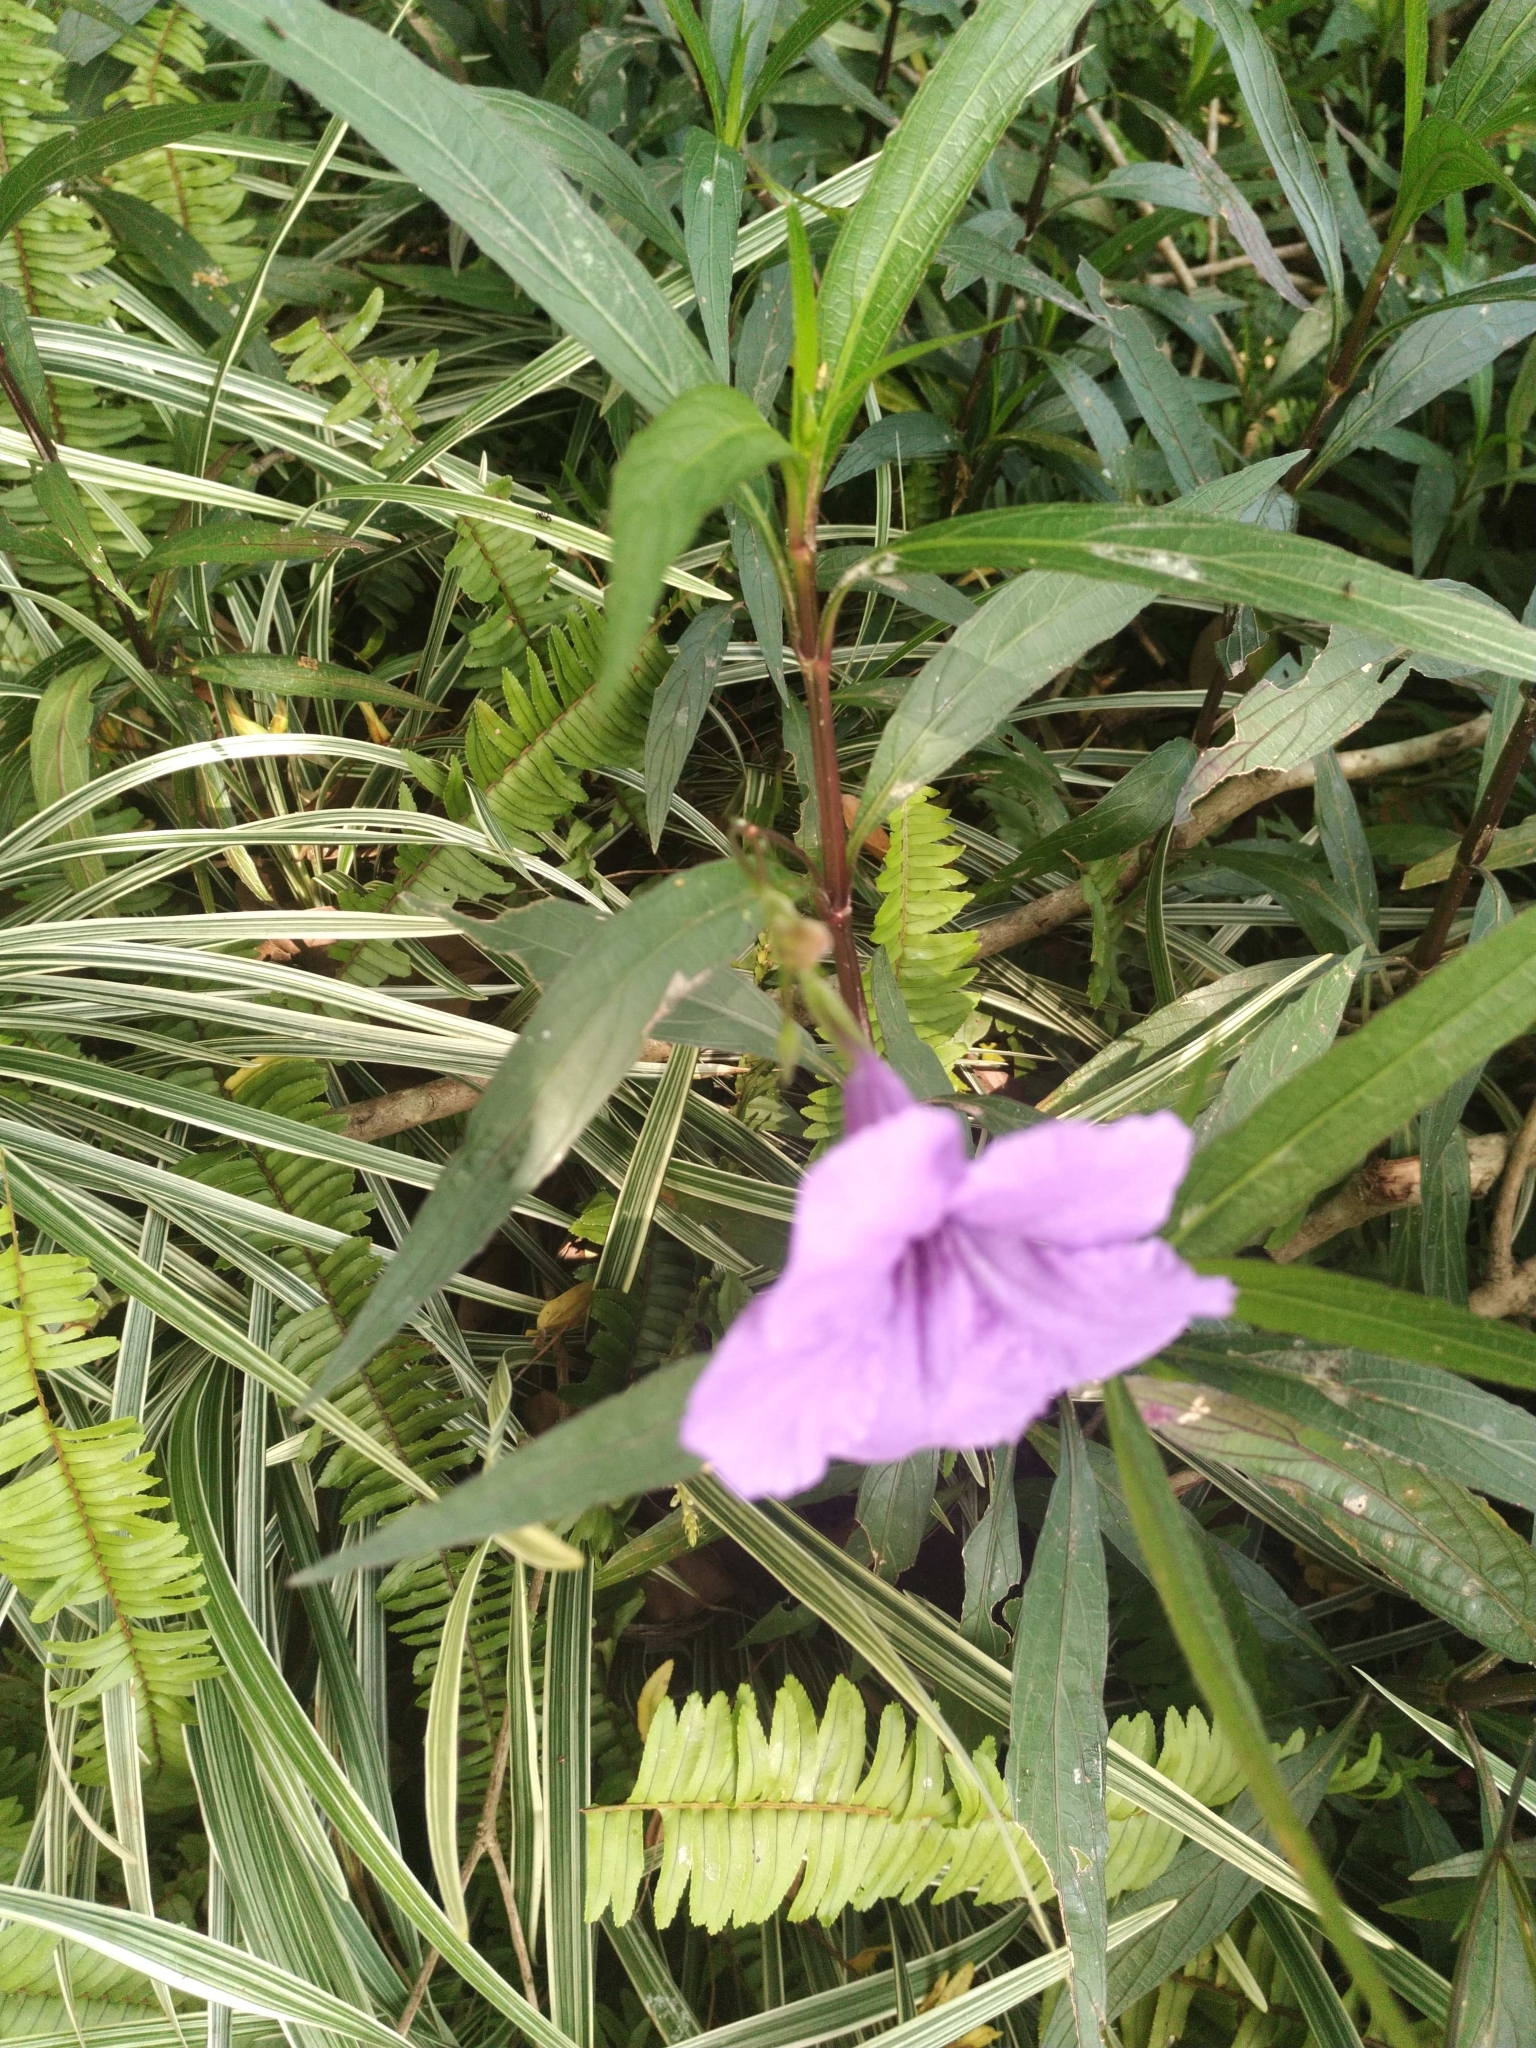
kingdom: Plantae
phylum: Tracheophyta
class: Magnoliopsida
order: Lamiales
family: Acanthaceae
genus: Ruellia
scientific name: Ruellia simplex
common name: Softseed wild petunia
